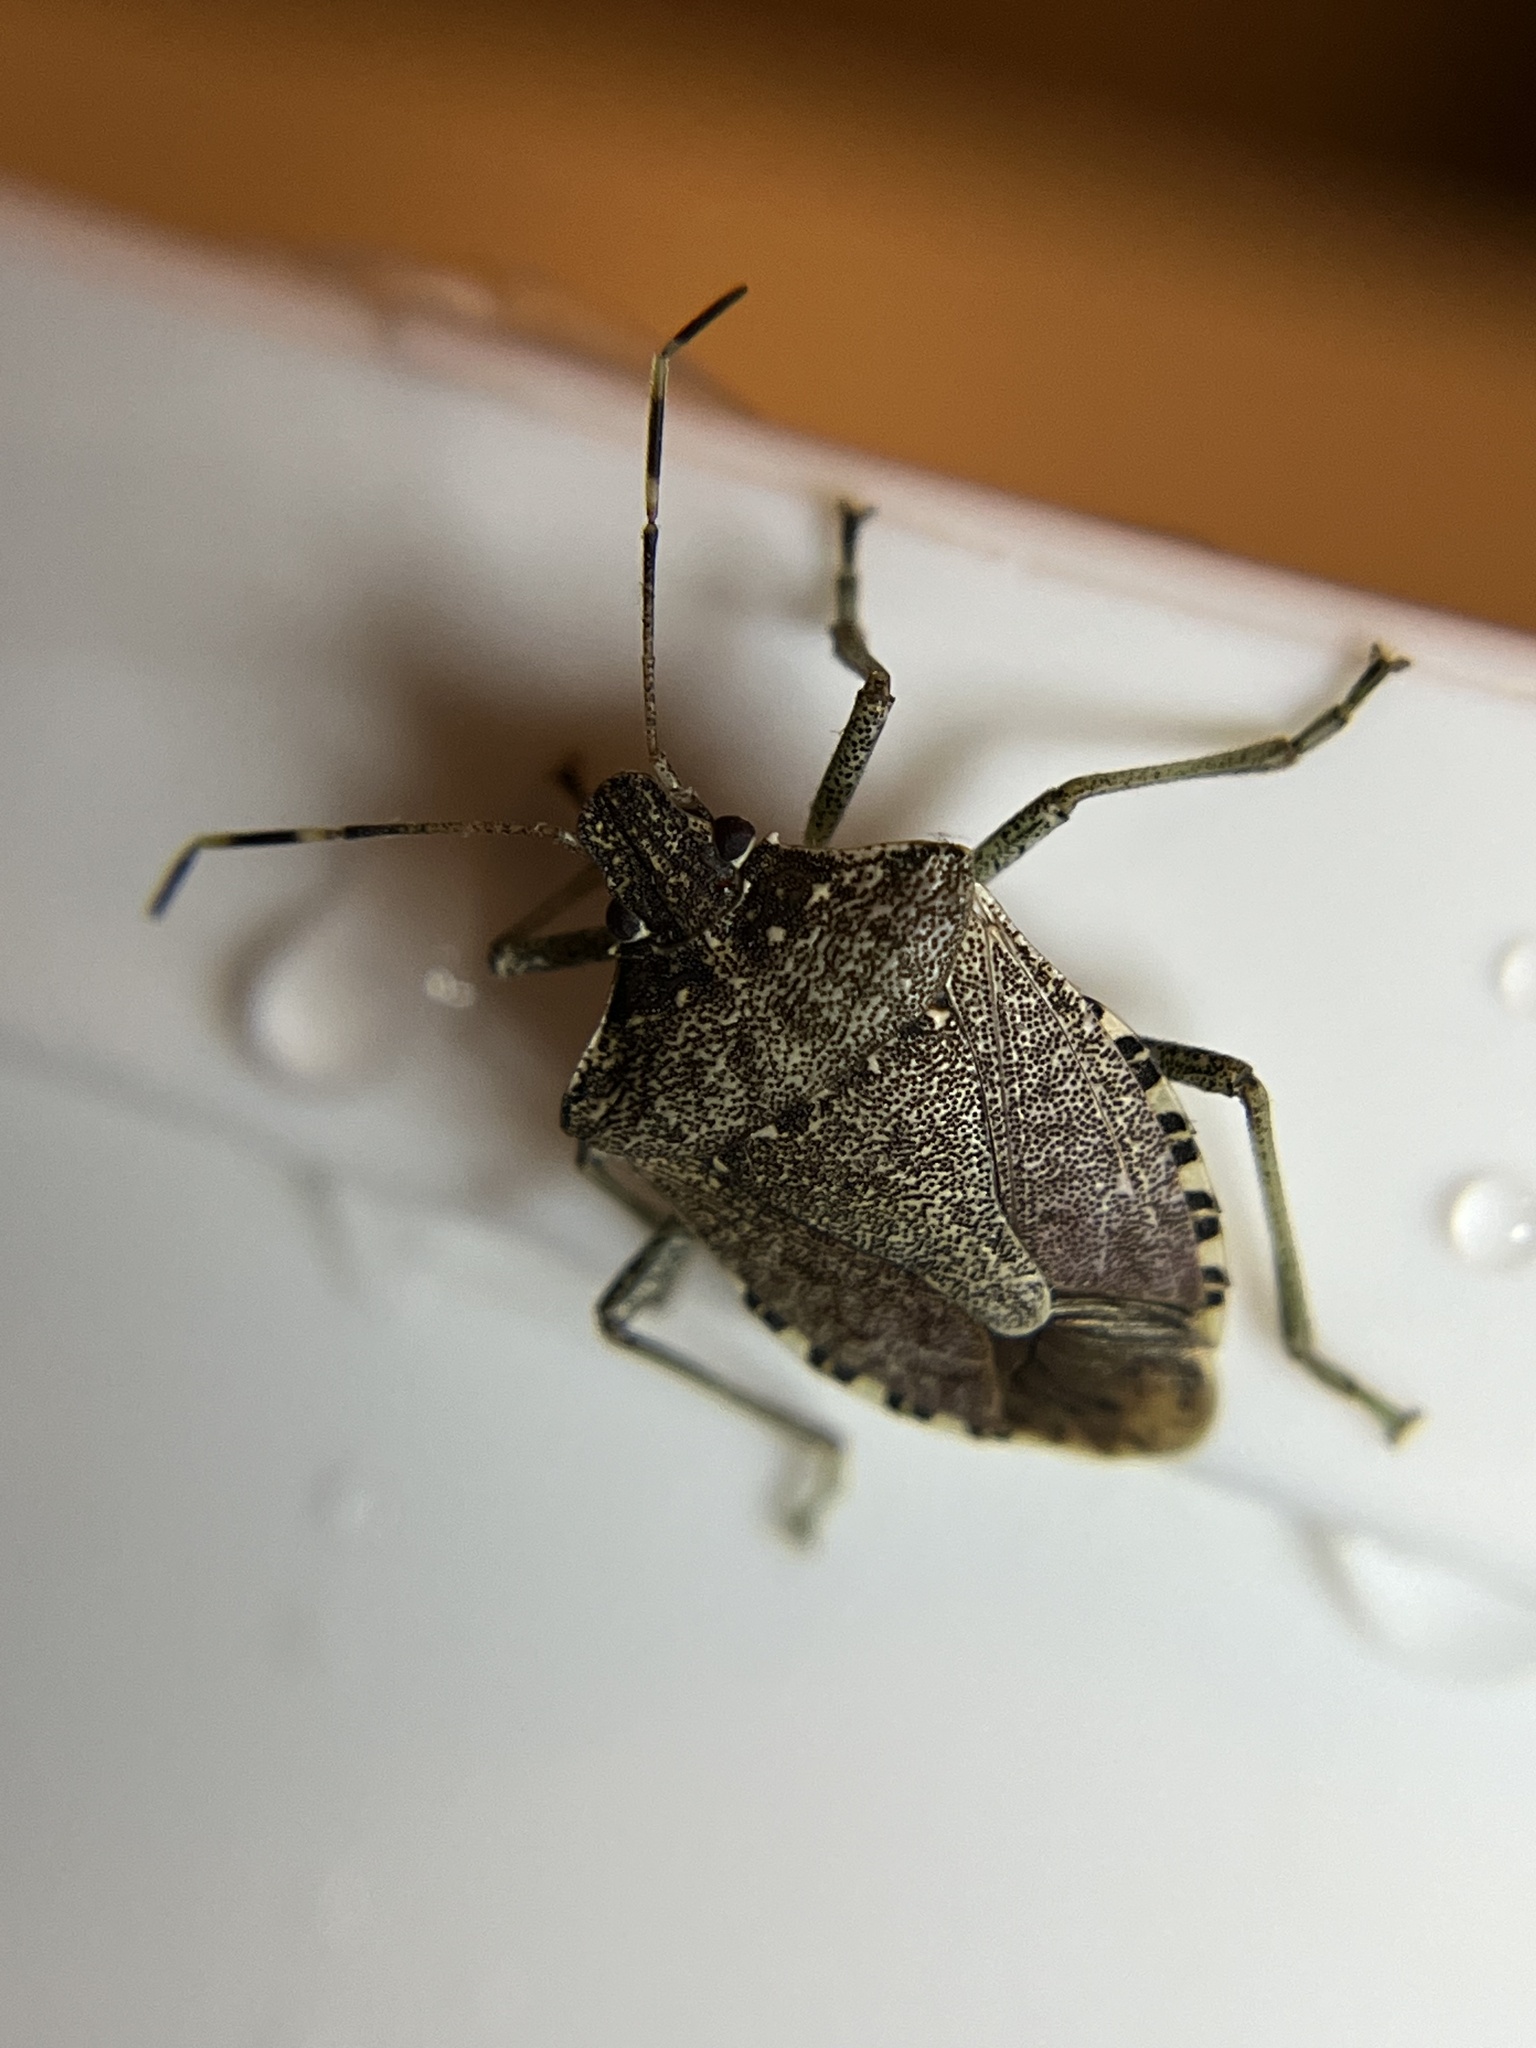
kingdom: Animalia
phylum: Arthropoda
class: Insecta
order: Hemiptera
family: Pentatomidae
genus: Halyomorpha
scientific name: Halyomorpha halys
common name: Brown marmorated stink bug
